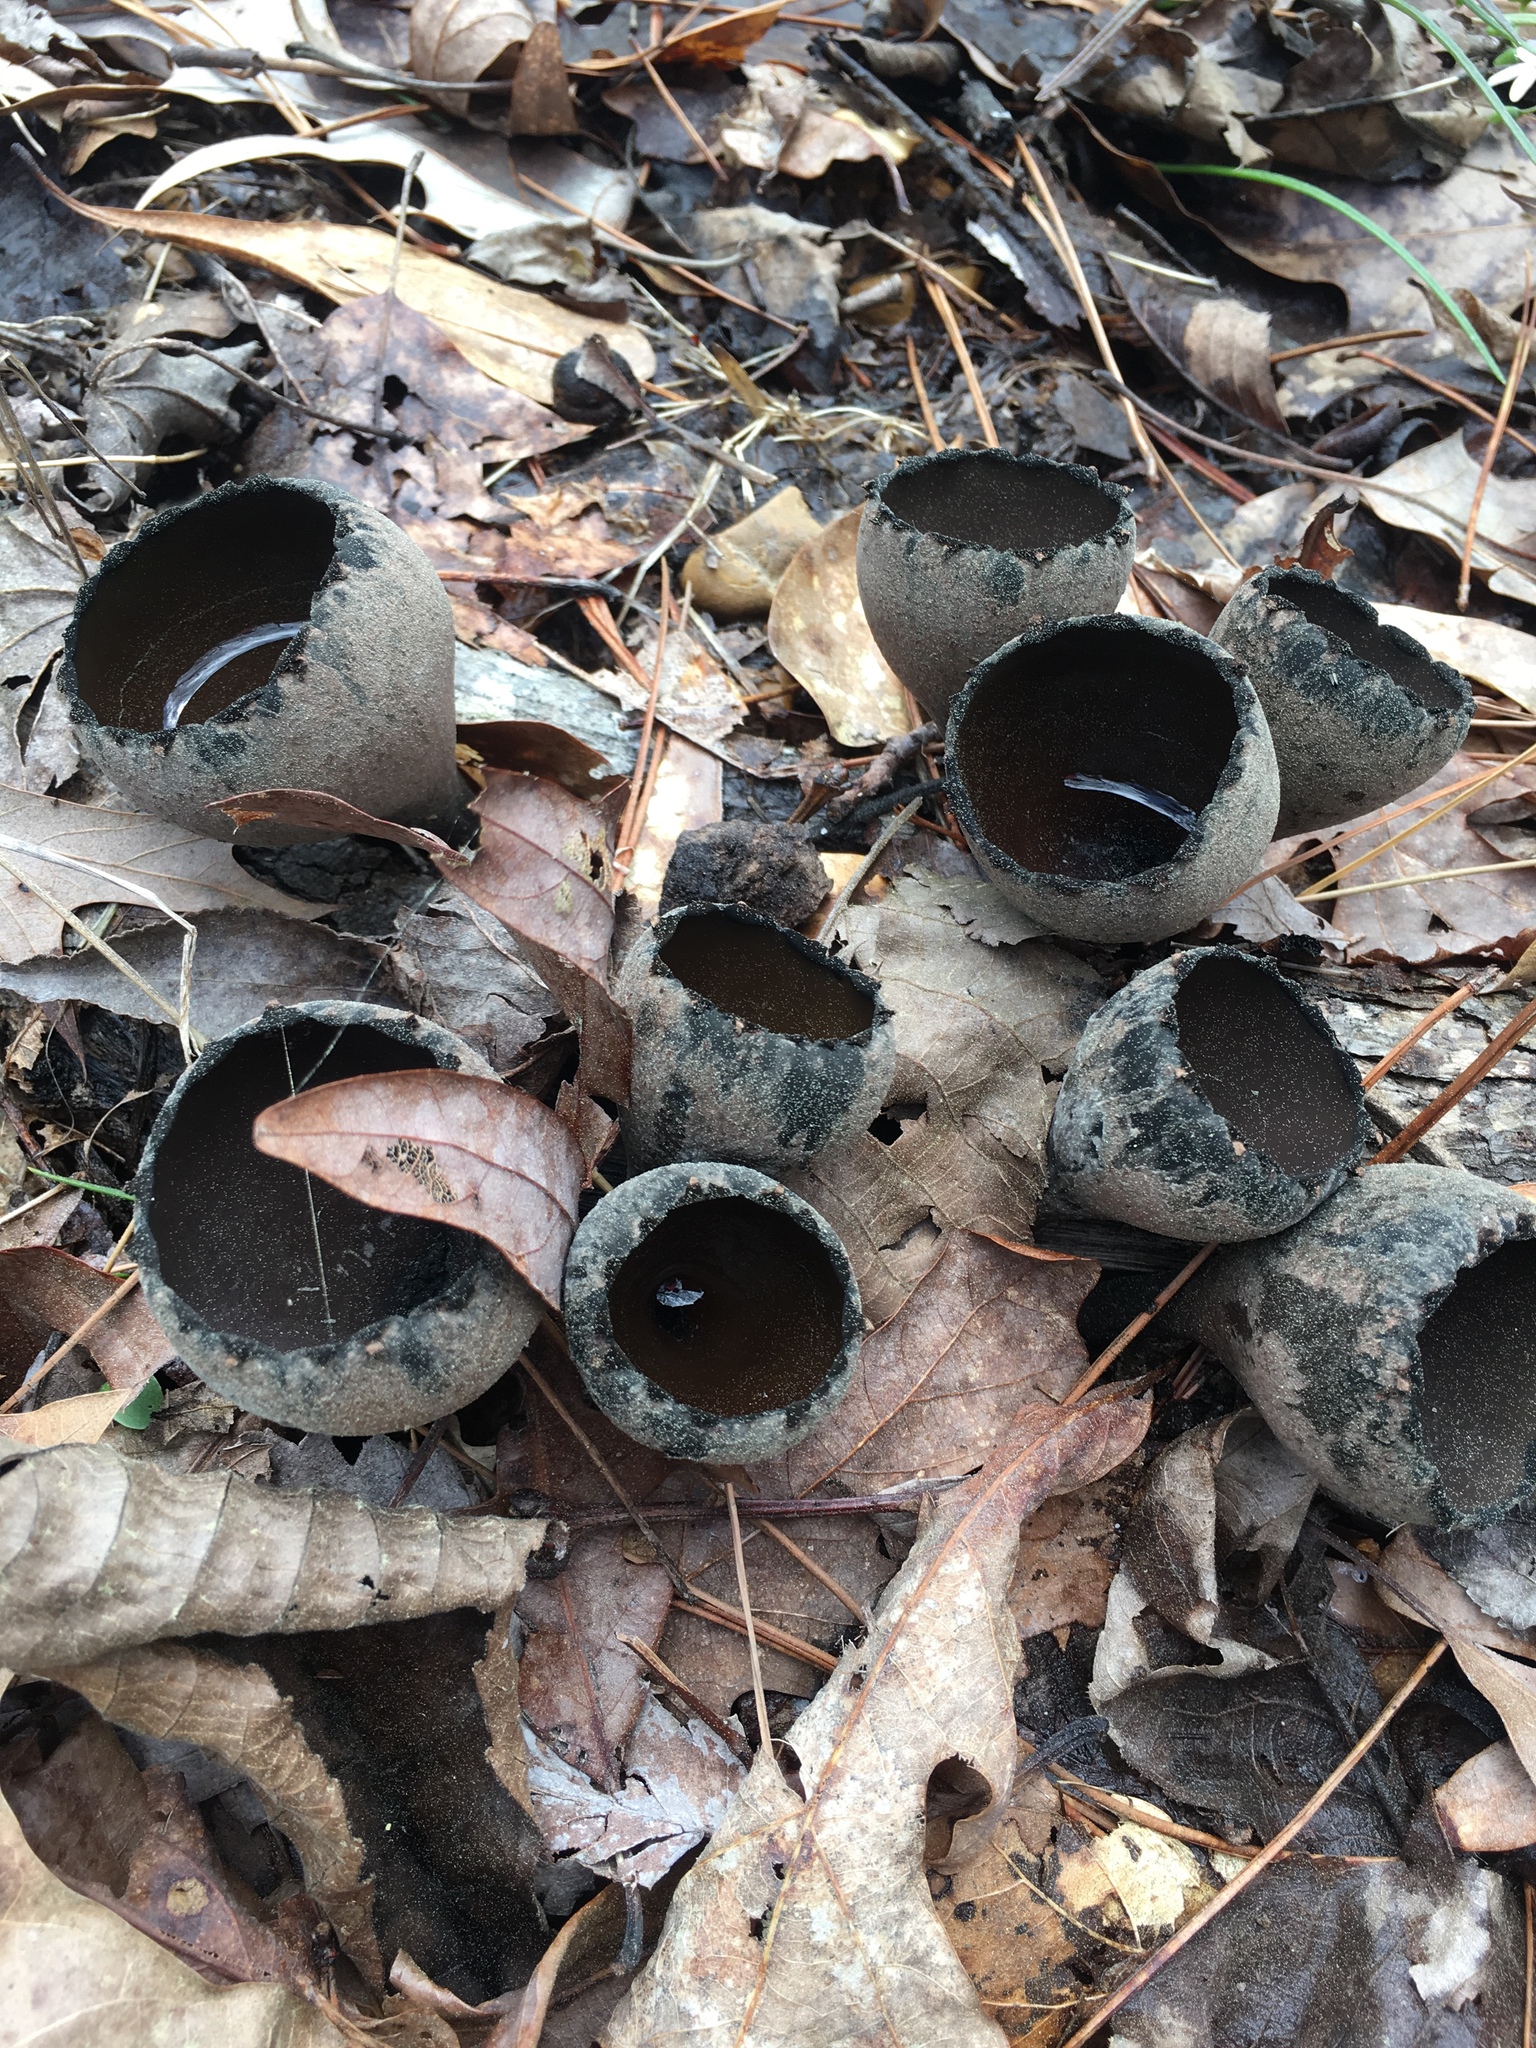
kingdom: Fungi
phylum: Ascomycota
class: Pezizomycetes
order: Pezizales
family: Sarcosomataceae
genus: Urnula
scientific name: Urnula craterium
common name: Devil's urn
